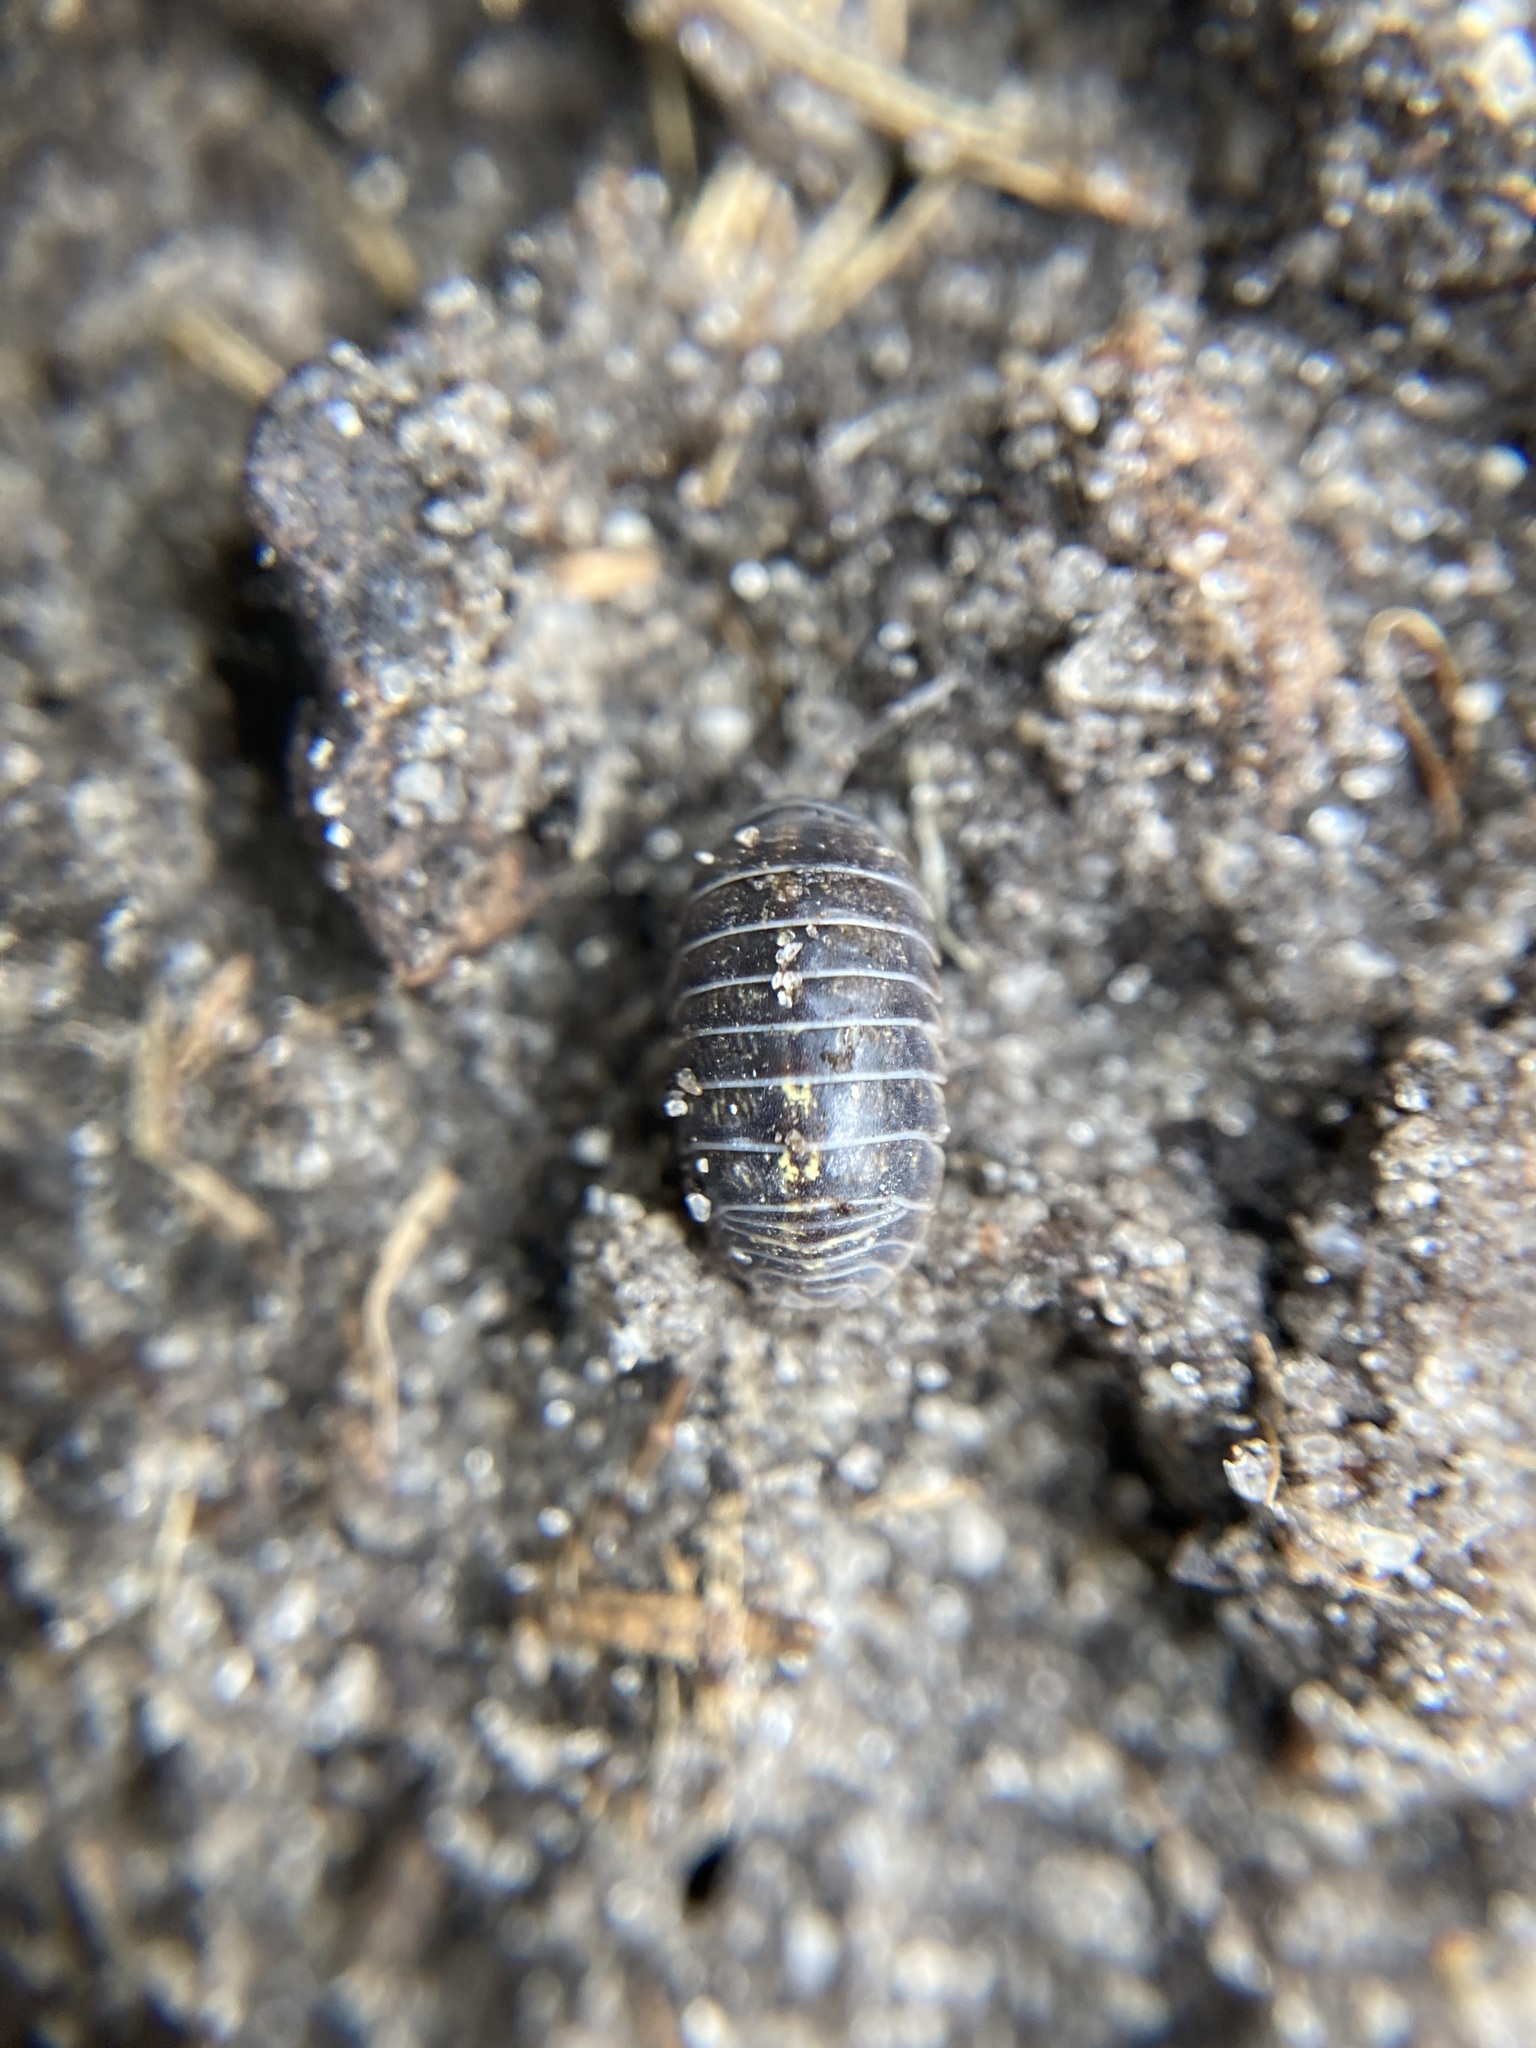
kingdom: Animalia
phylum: Arthropoda
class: Malacostraca
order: Isopoda
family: Armadillidiidae
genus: Armadillidium
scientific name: Armadillidium vulgare
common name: Common pill woodlouse
